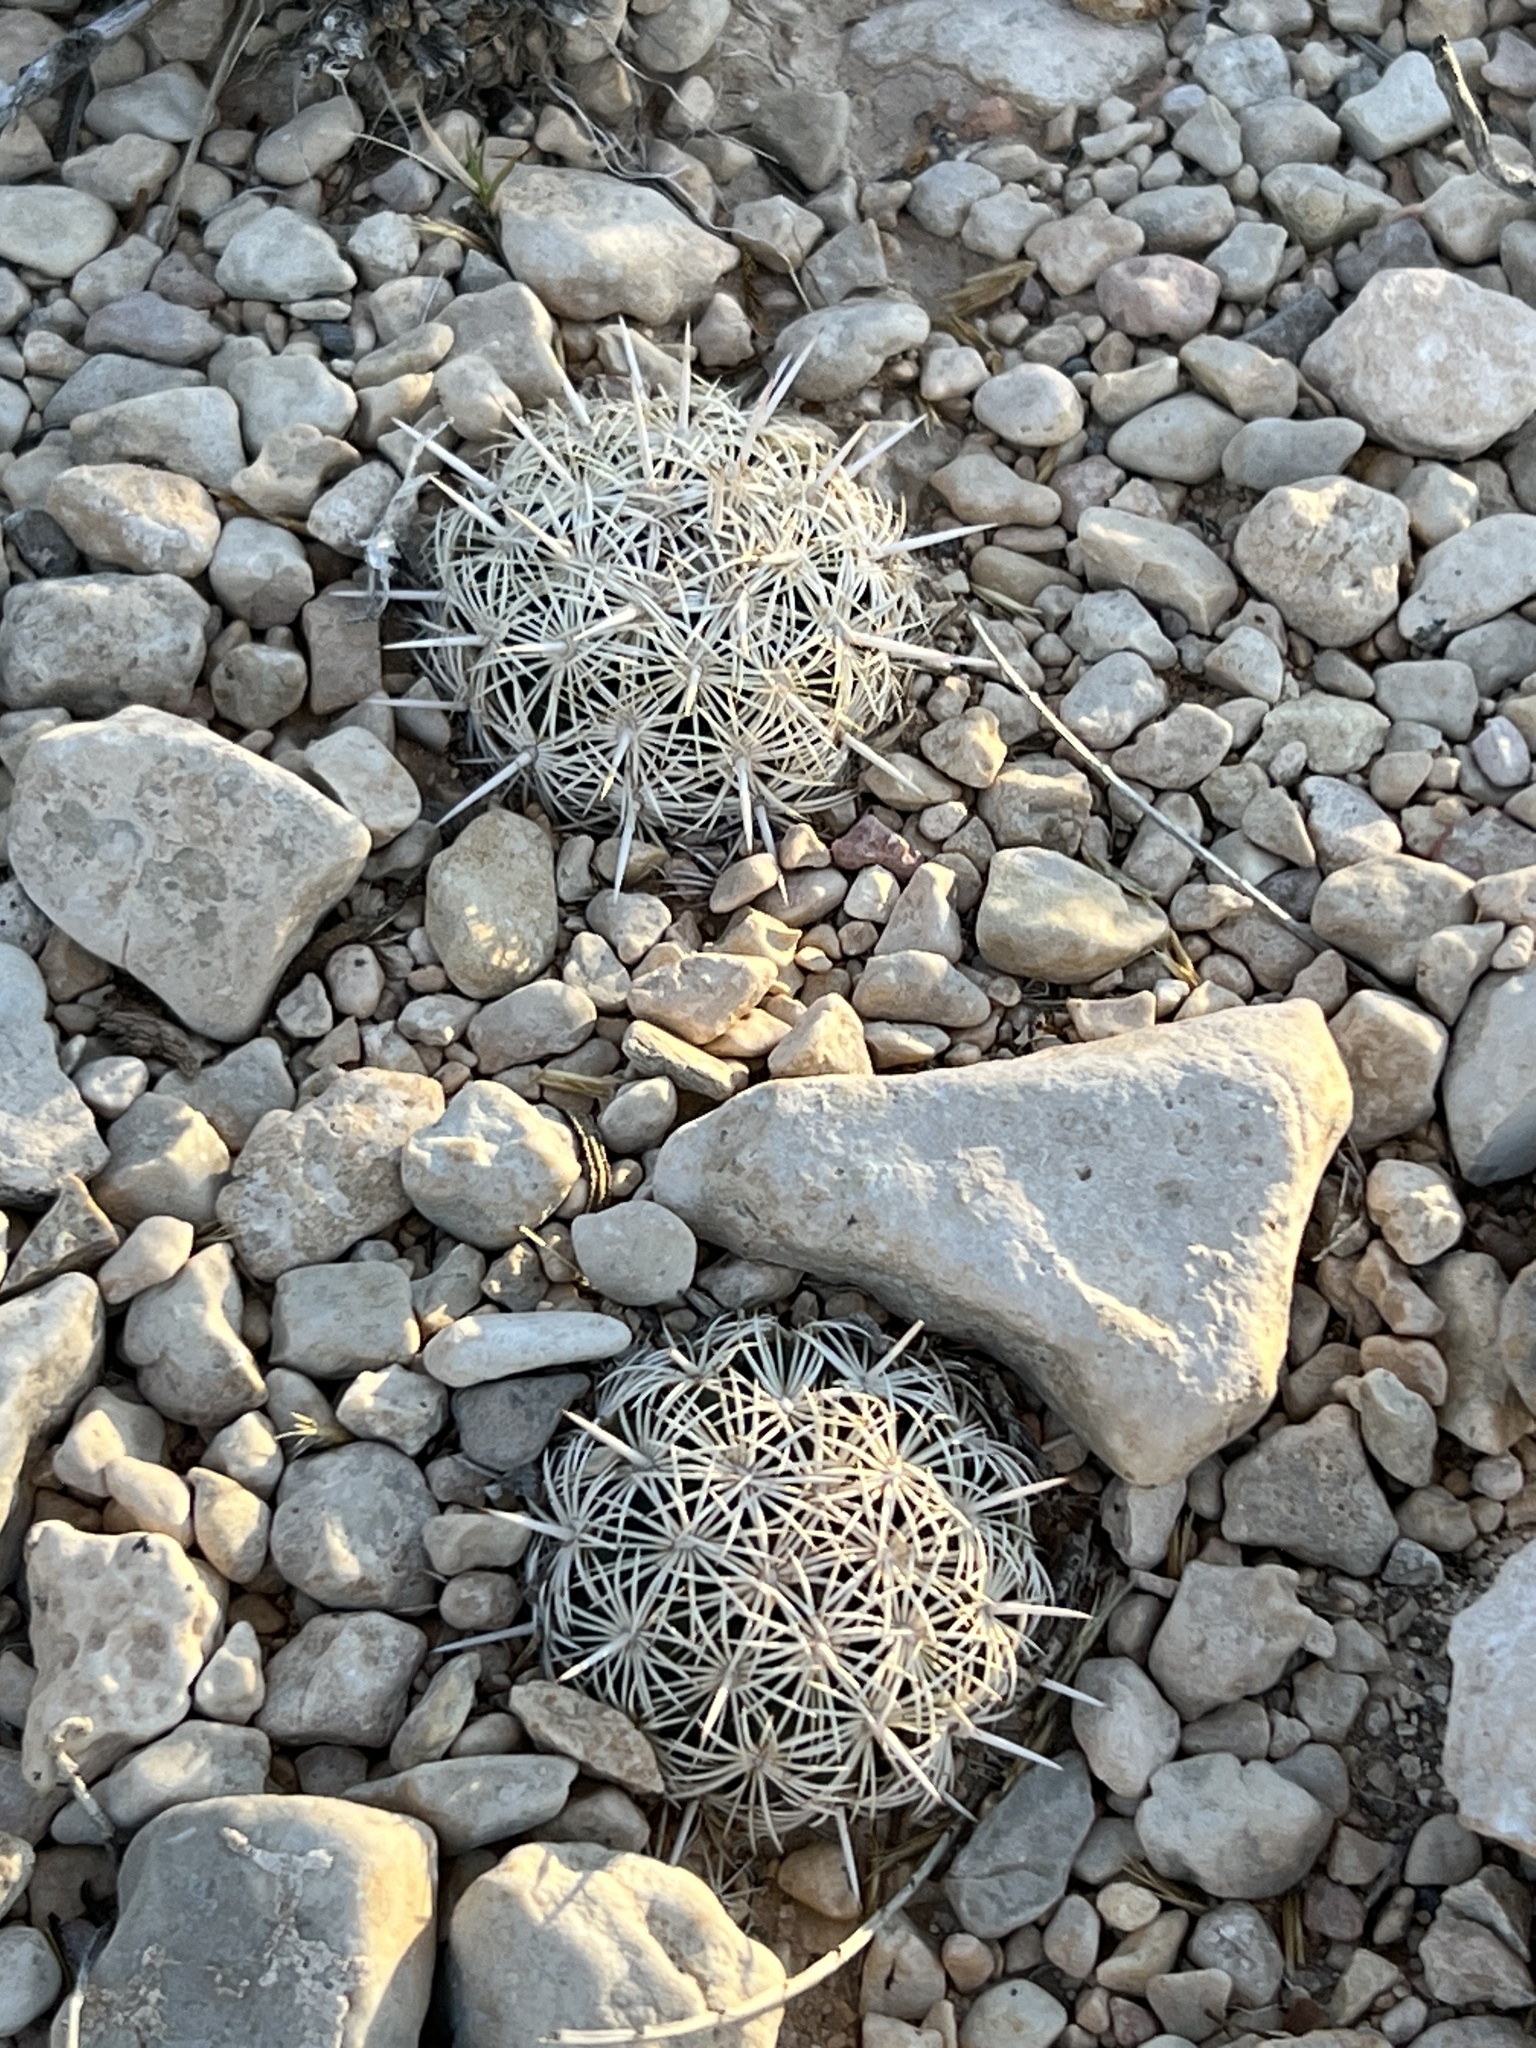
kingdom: Plantae
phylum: Tracheophyta
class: Magnoliopsida
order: Caryophyllales
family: Cactaceae
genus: Coryphantha
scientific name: Coryphantha echinus
